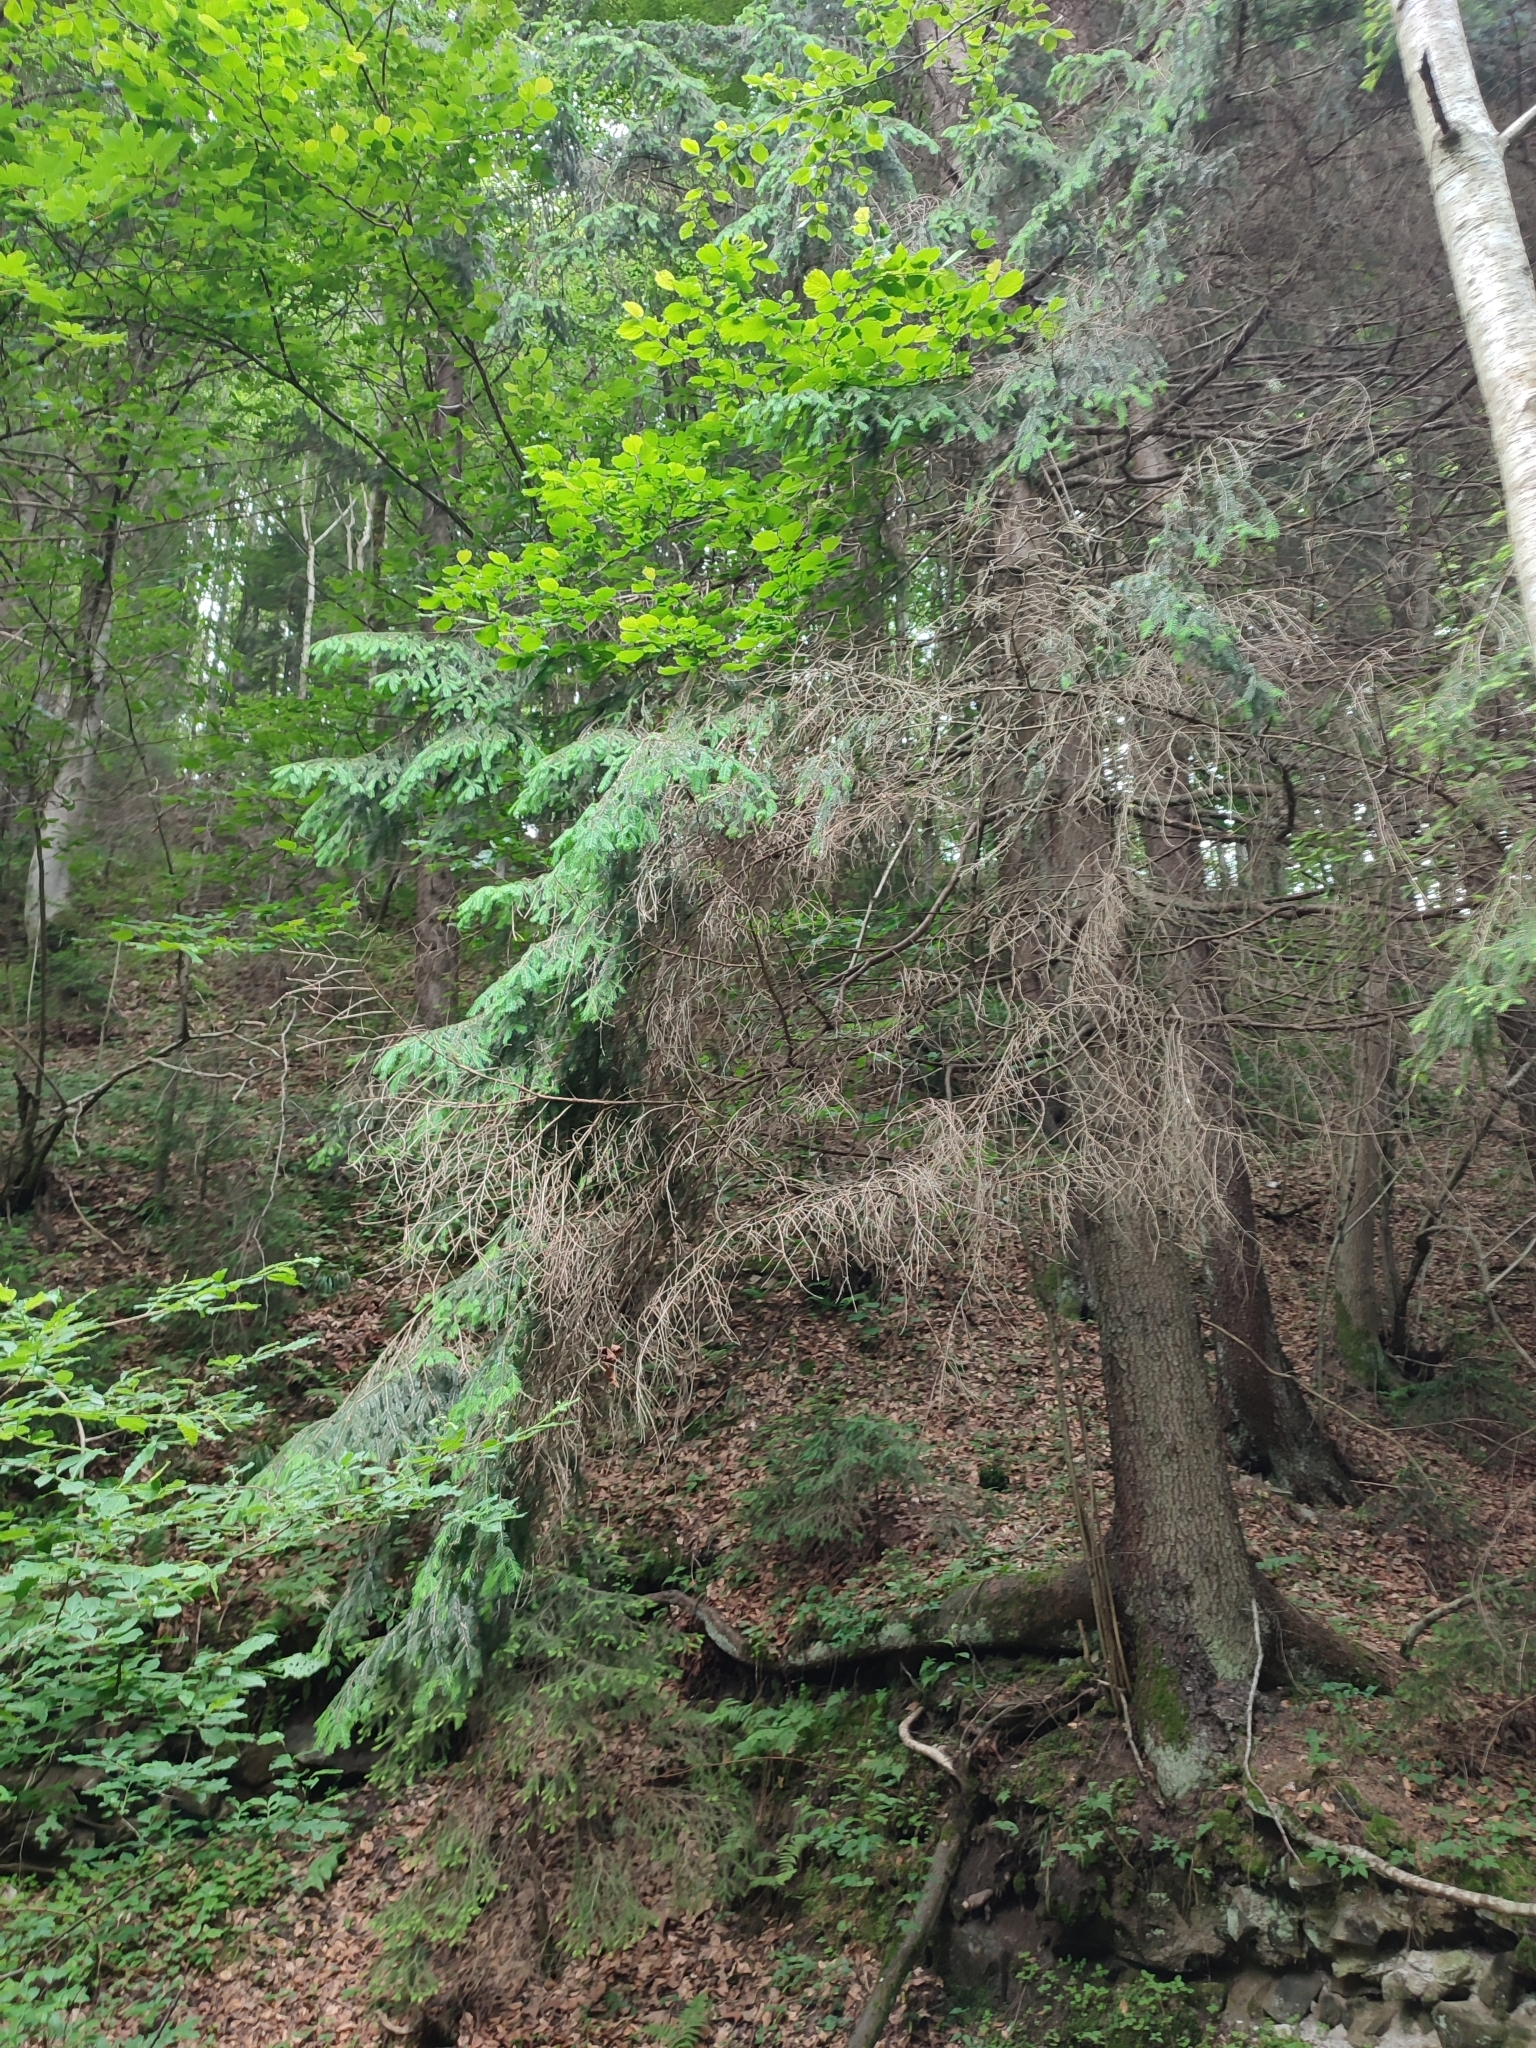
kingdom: Plantae
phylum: Tracheophyta
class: Pinopsida
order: Pinales
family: Pinaceae
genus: Picea
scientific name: Picea abies
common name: Norway spruce
